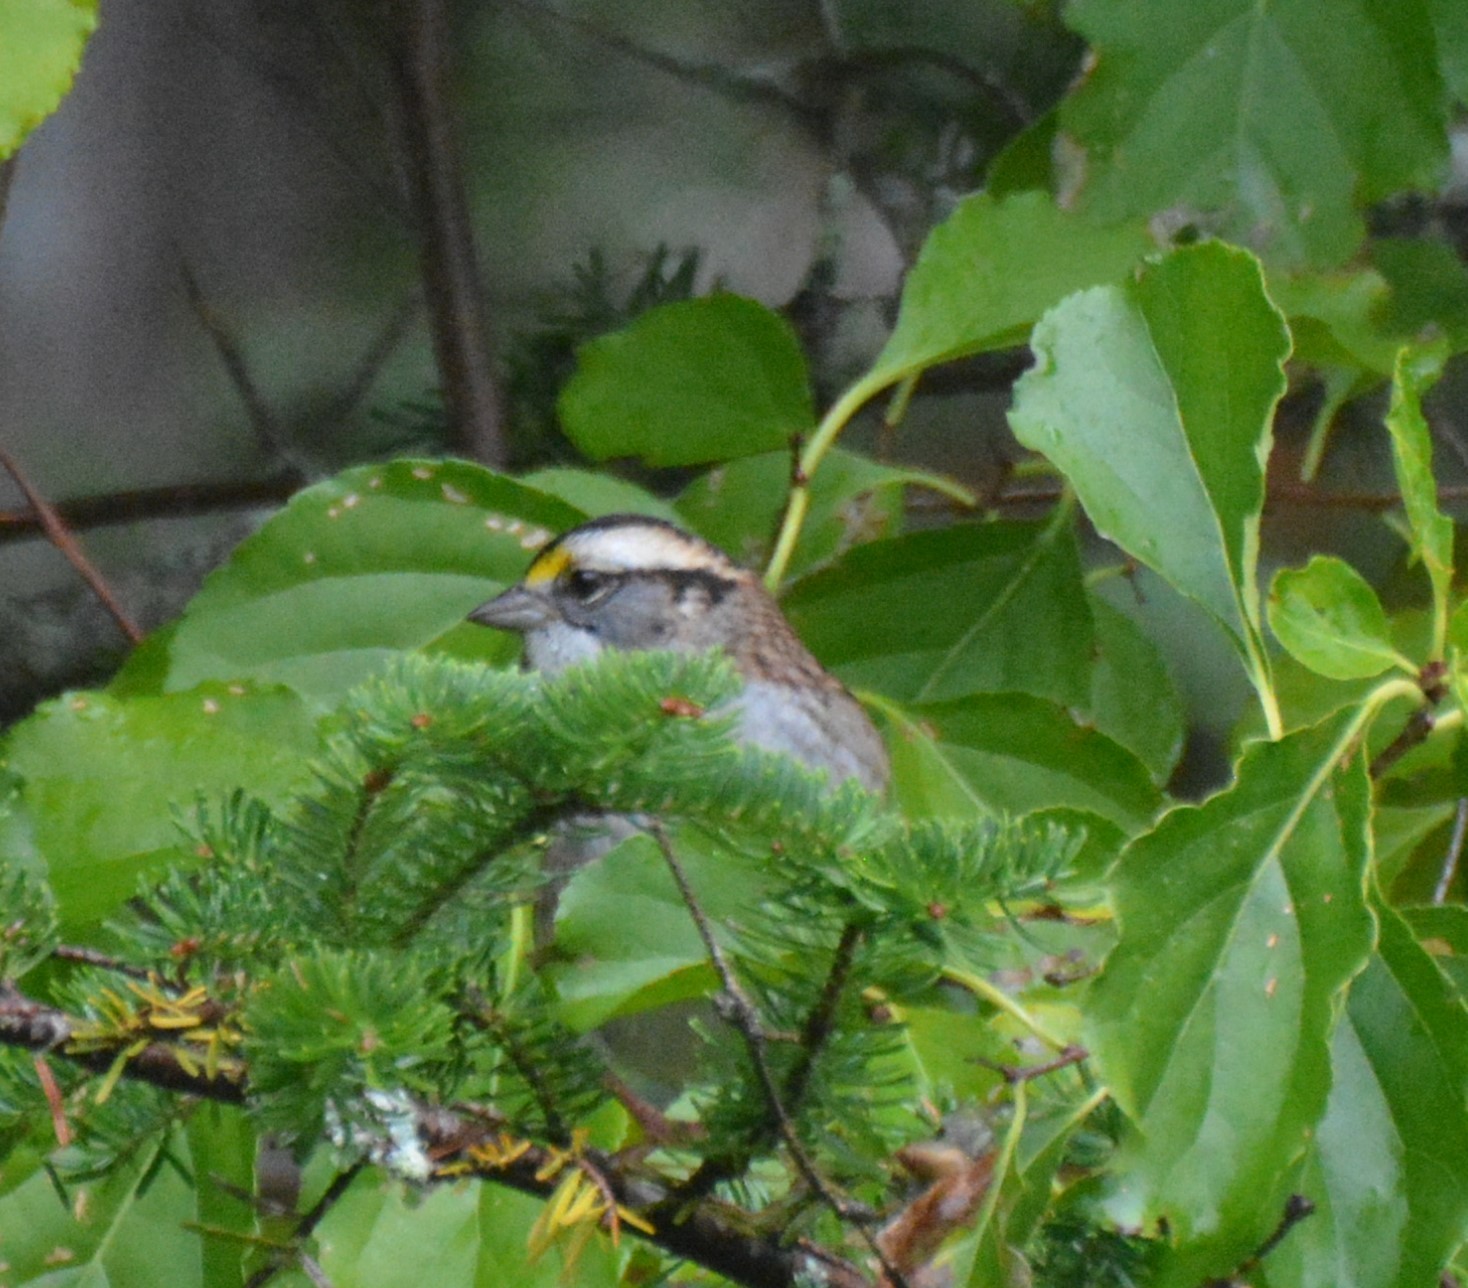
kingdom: Animalia
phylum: Chordata
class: Aves
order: Passeriformes
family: Passerellidae
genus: Zonotrichia
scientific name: Zonotrichia albicollis
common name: White-throated sparrow
